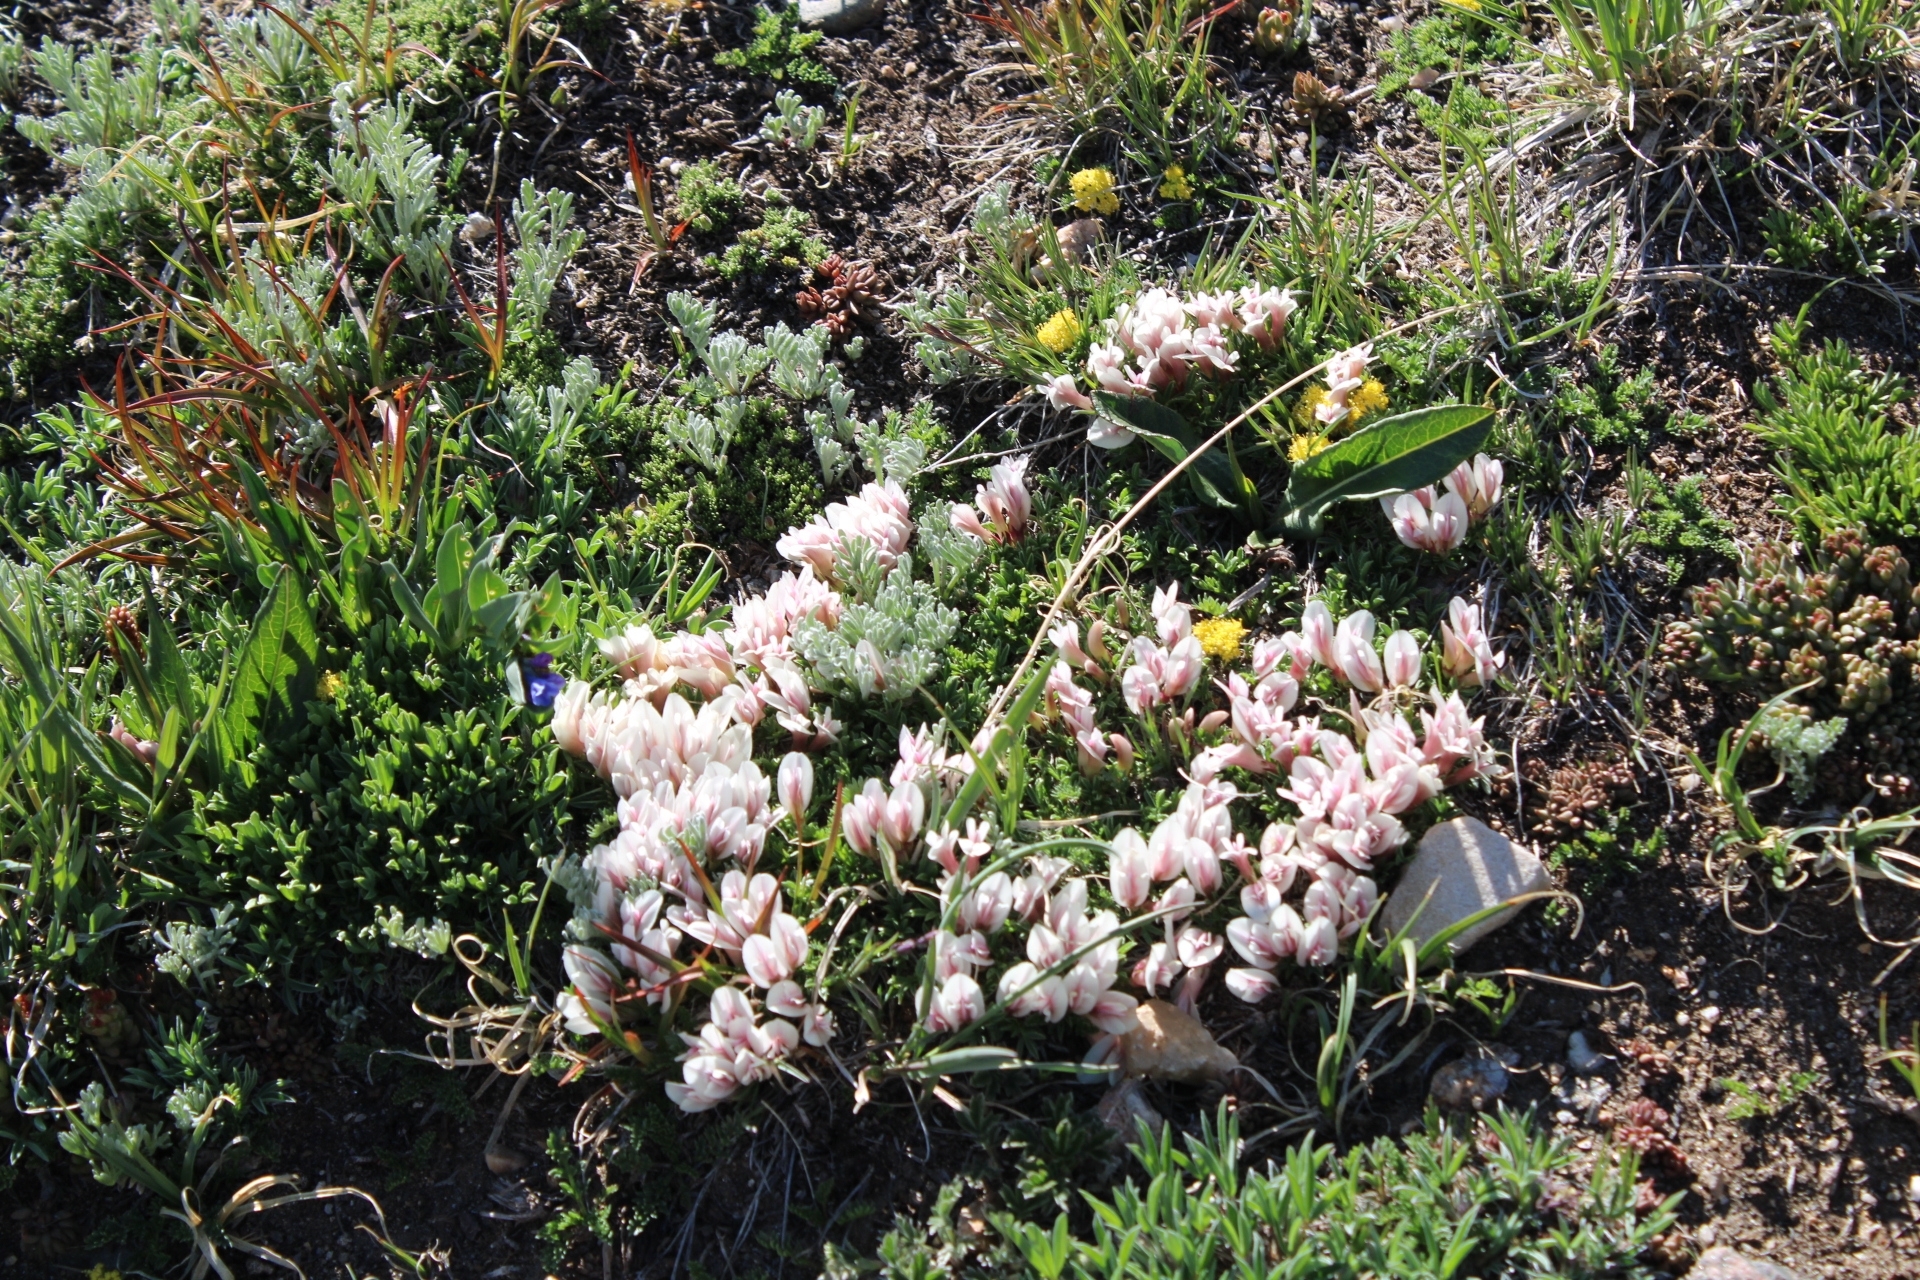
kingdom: Plantae
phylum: Tracheophyta
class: Magnoliopsida
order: Fabales
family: Fabaceae
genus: Trifolium
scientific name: Trifolium nanum
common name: Tundra clover
